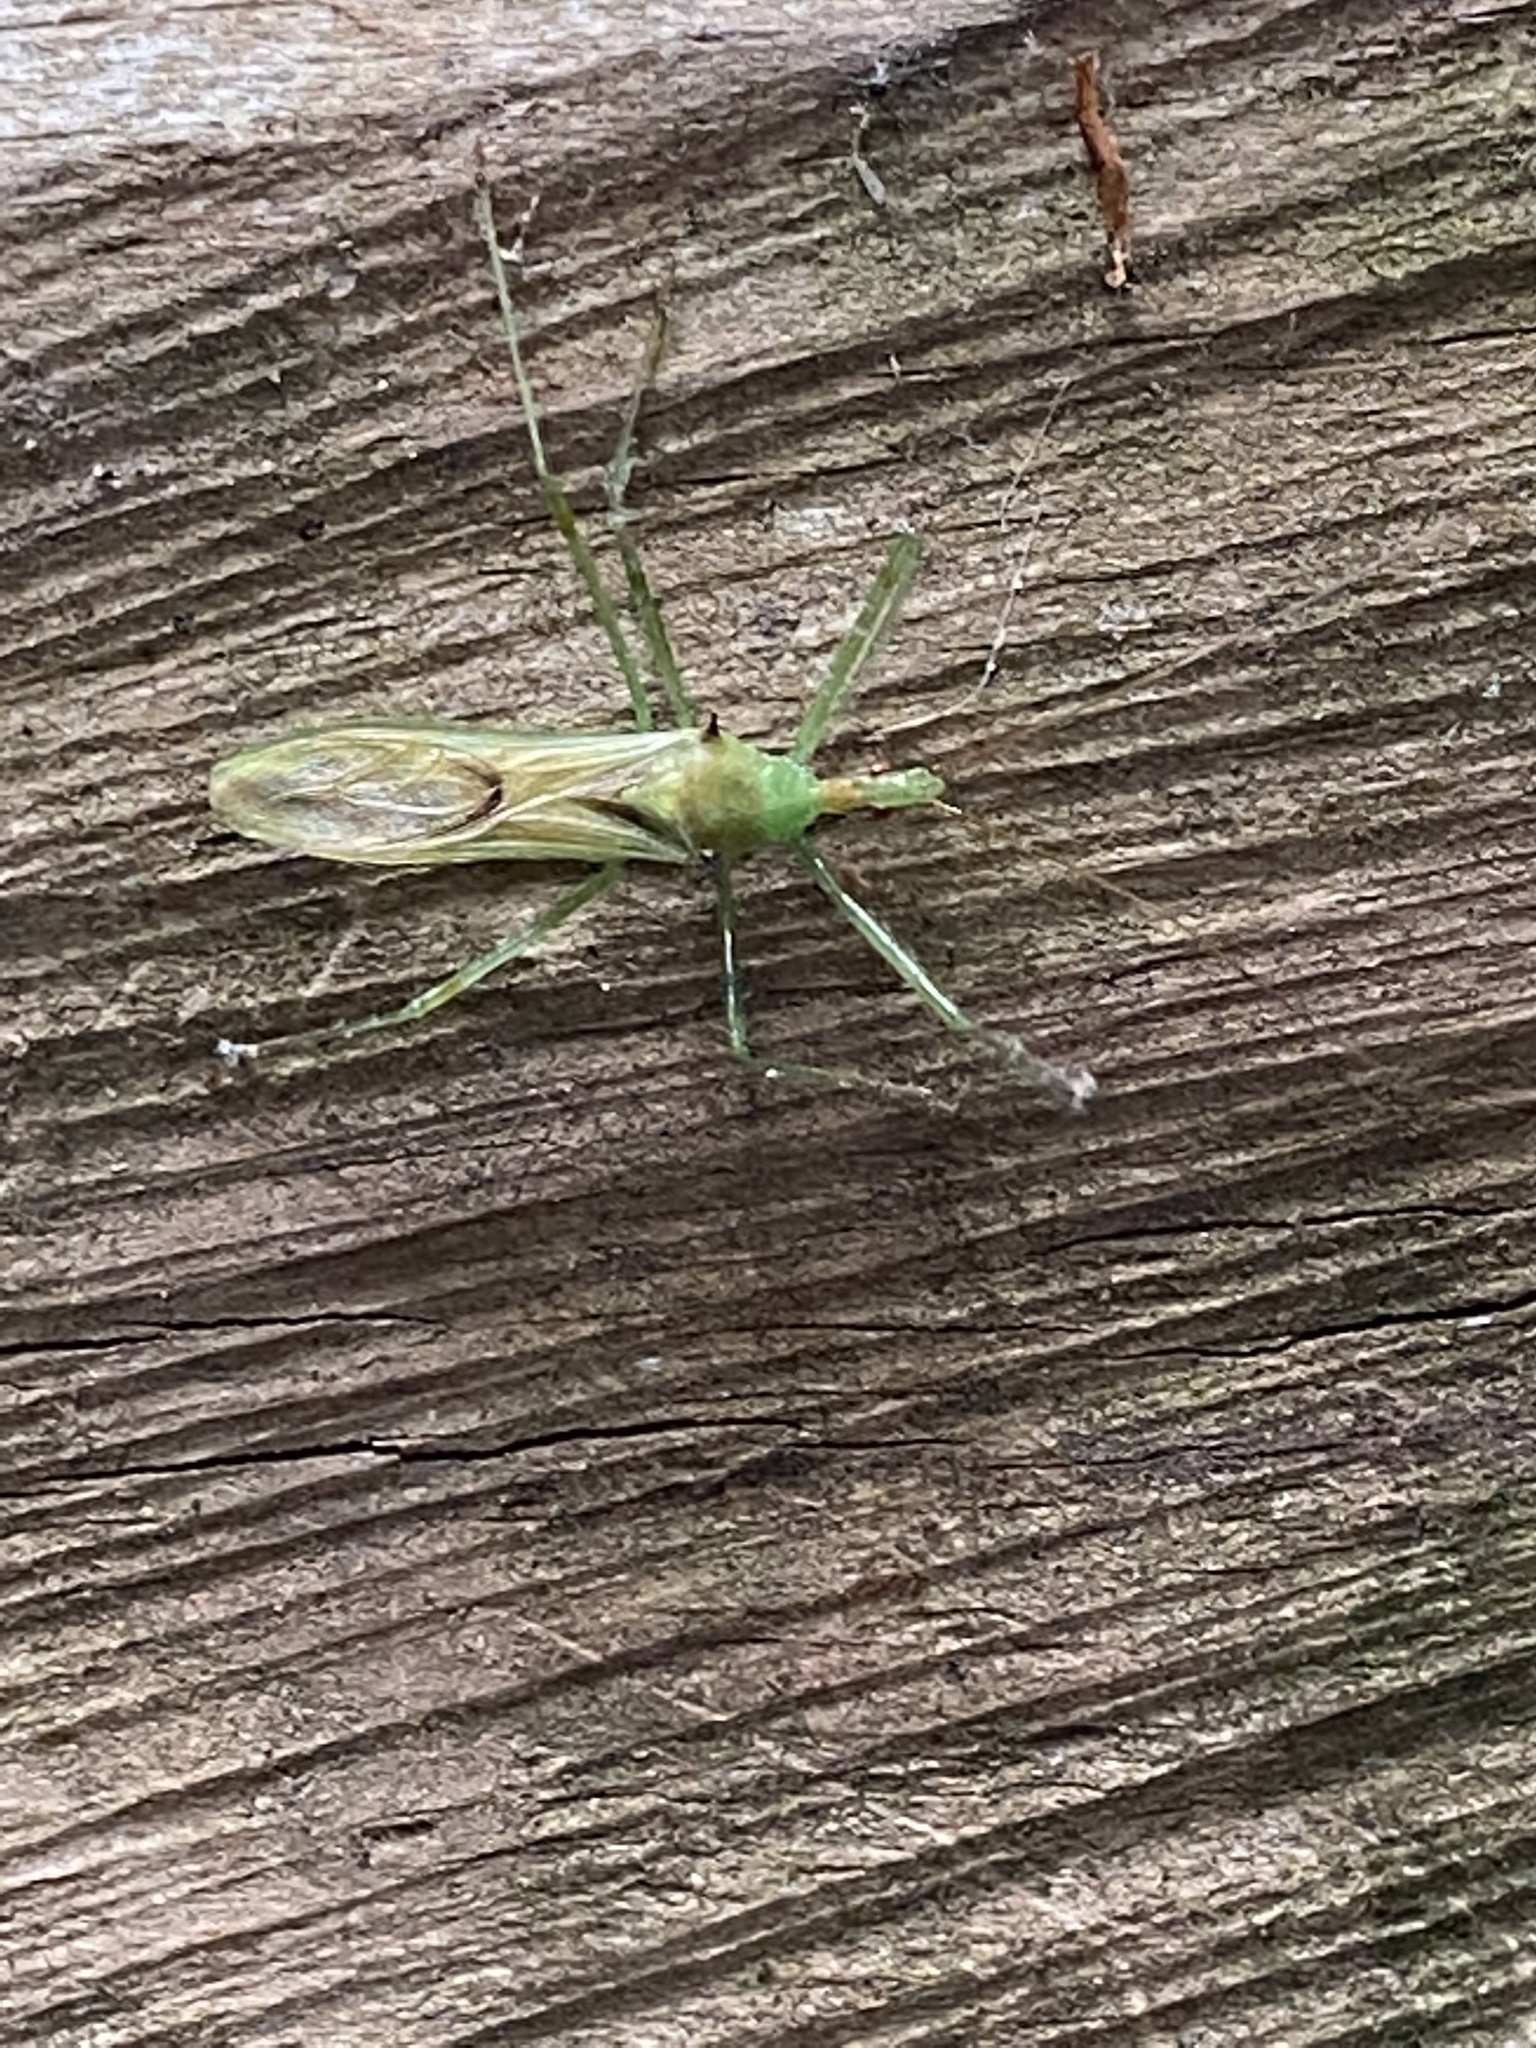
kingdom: Animalia
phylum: Arthropoda
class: Insecta
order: Hemiptera
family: Reduviidae
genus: Zelus
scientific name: Zelus luridus
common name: Pale green assassin bug
